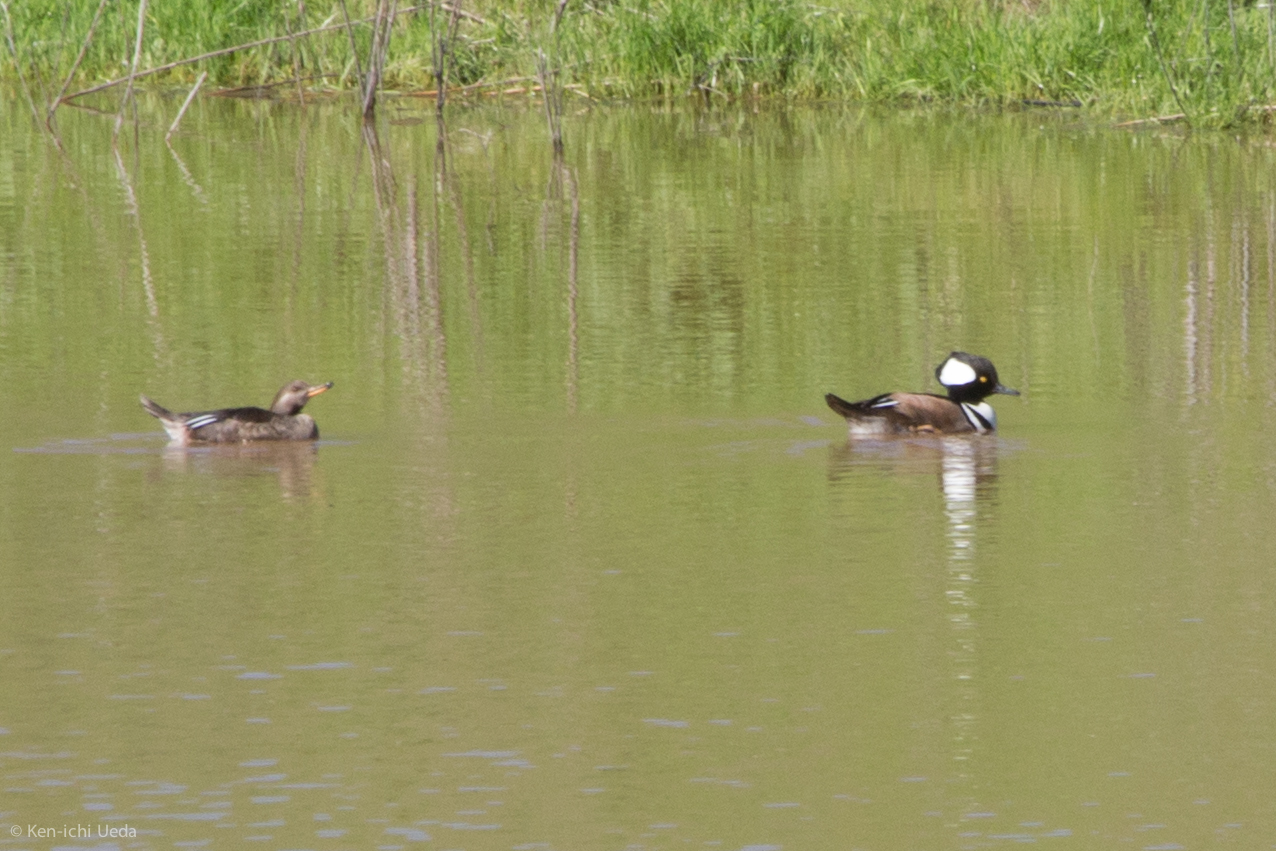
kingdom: Animalia
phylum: Chordata
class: Aves
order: Anseriformes
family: Anatidae
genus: Lophodytes
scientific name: Lophodytes cucullatus
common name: Hooded merganser
